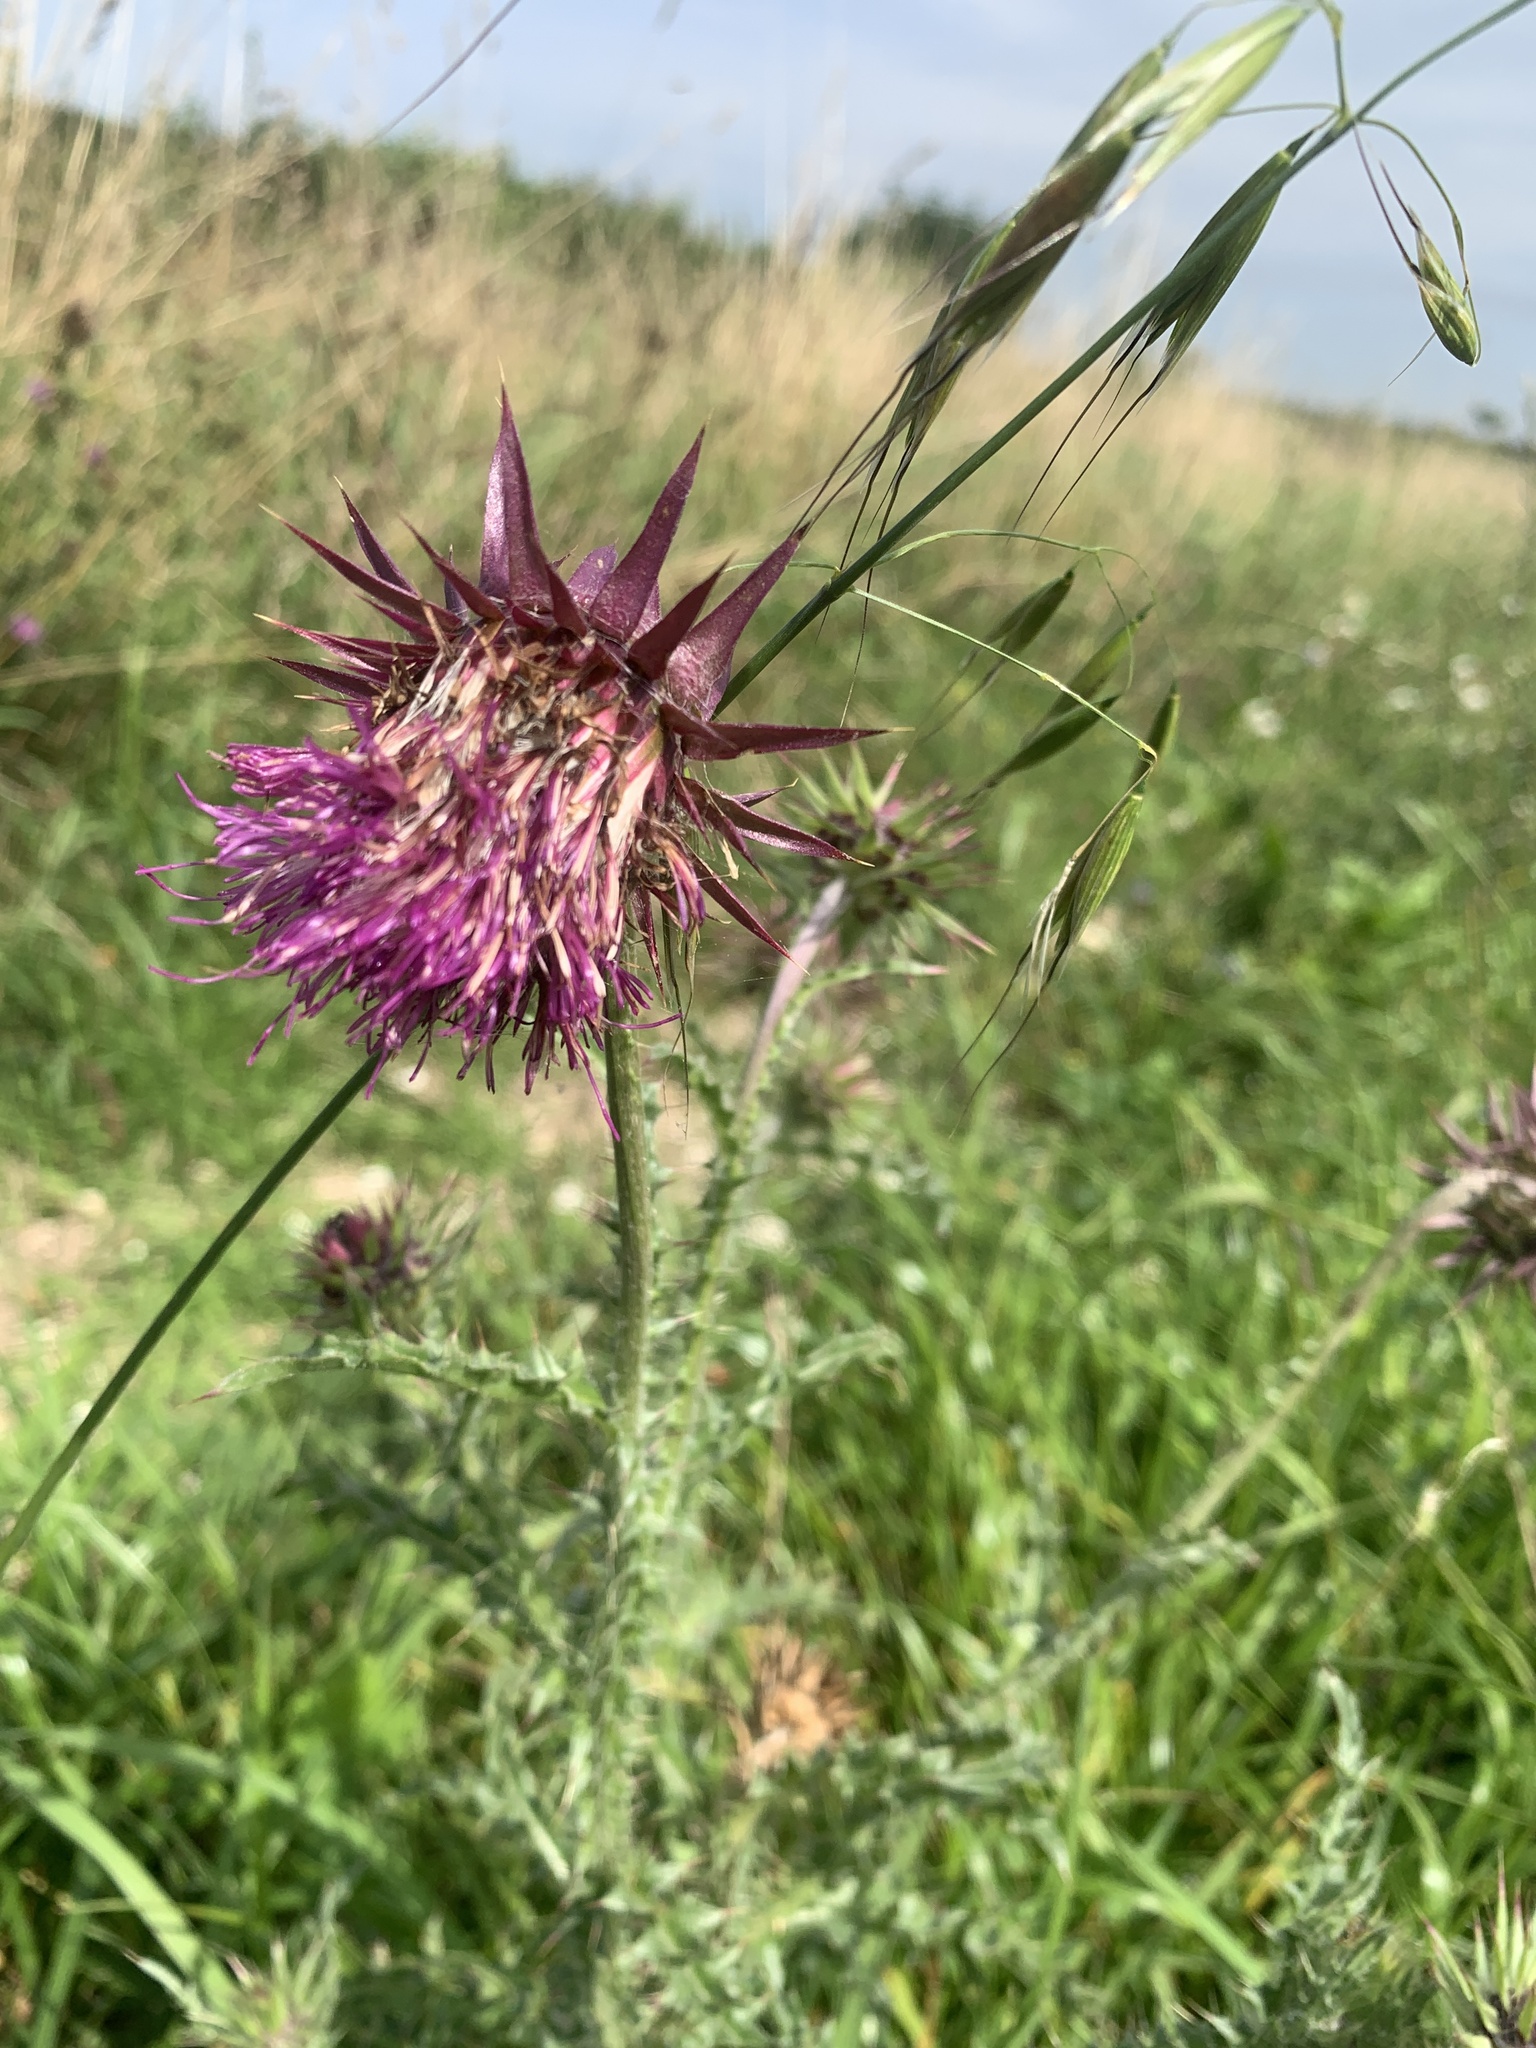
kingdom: Plantae
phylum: Tracheophyta
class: Magnoliopsida
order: Asterales
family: Asteraceae
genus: Carduus
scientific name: Carduus nutans
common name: Musk thistle
